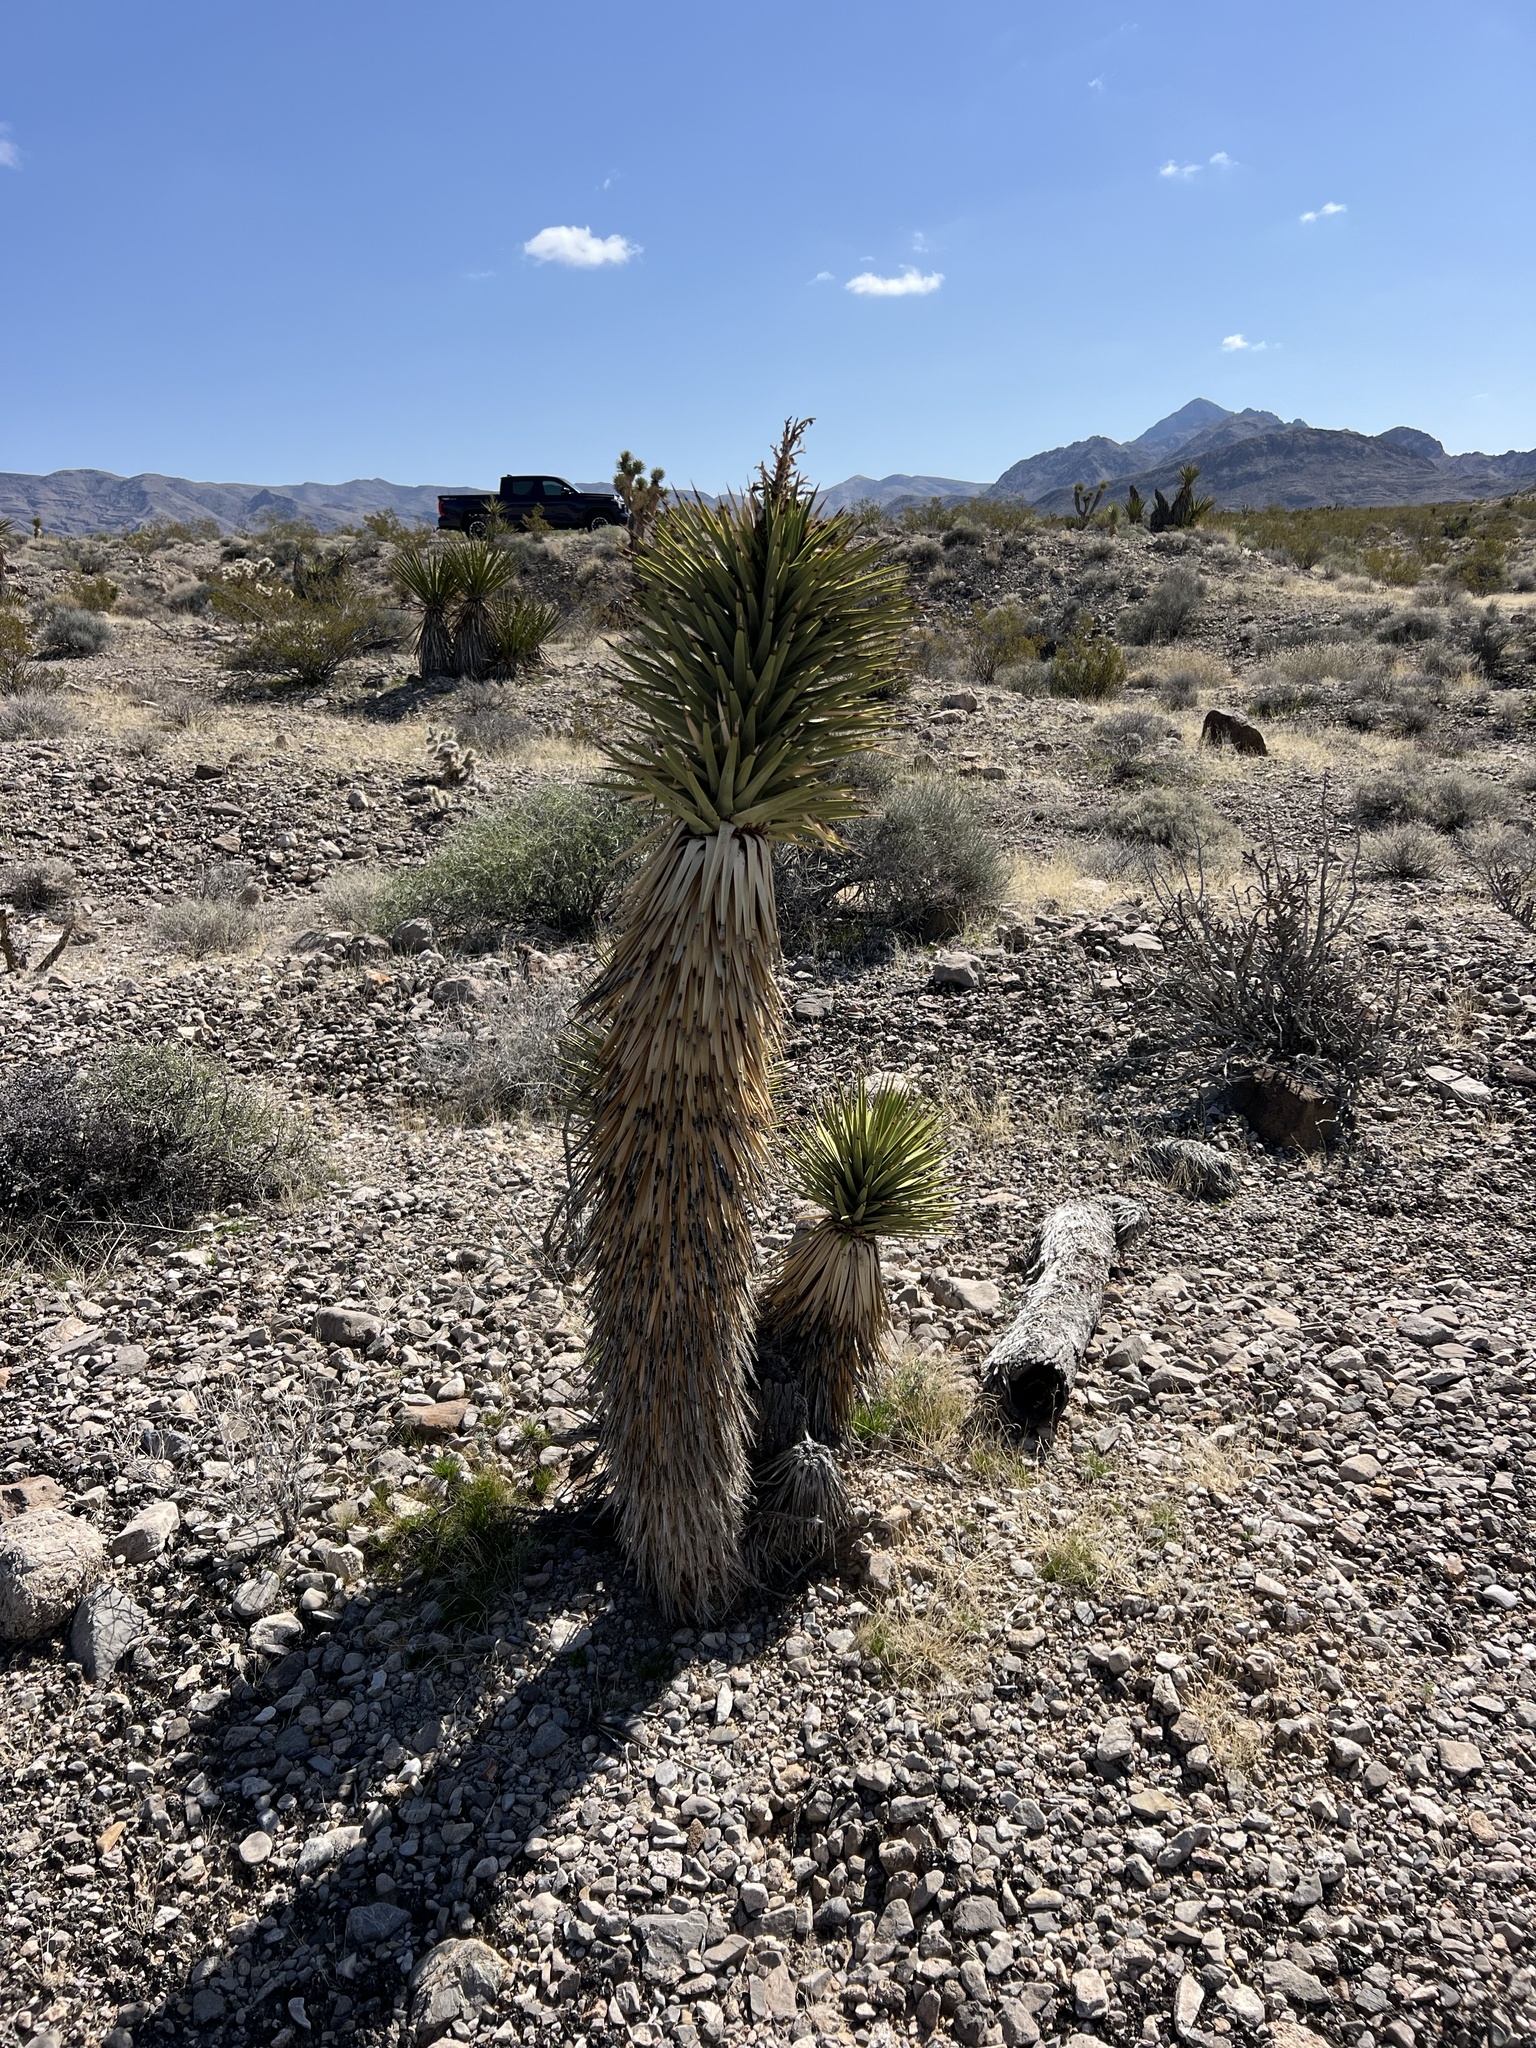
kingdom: Plantae
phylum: Tracheophyta
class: Liliopsida
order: Asparagales
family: Asparagaceae
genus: Yucca
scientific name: Yucca brevifolia
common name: Joshua tree
